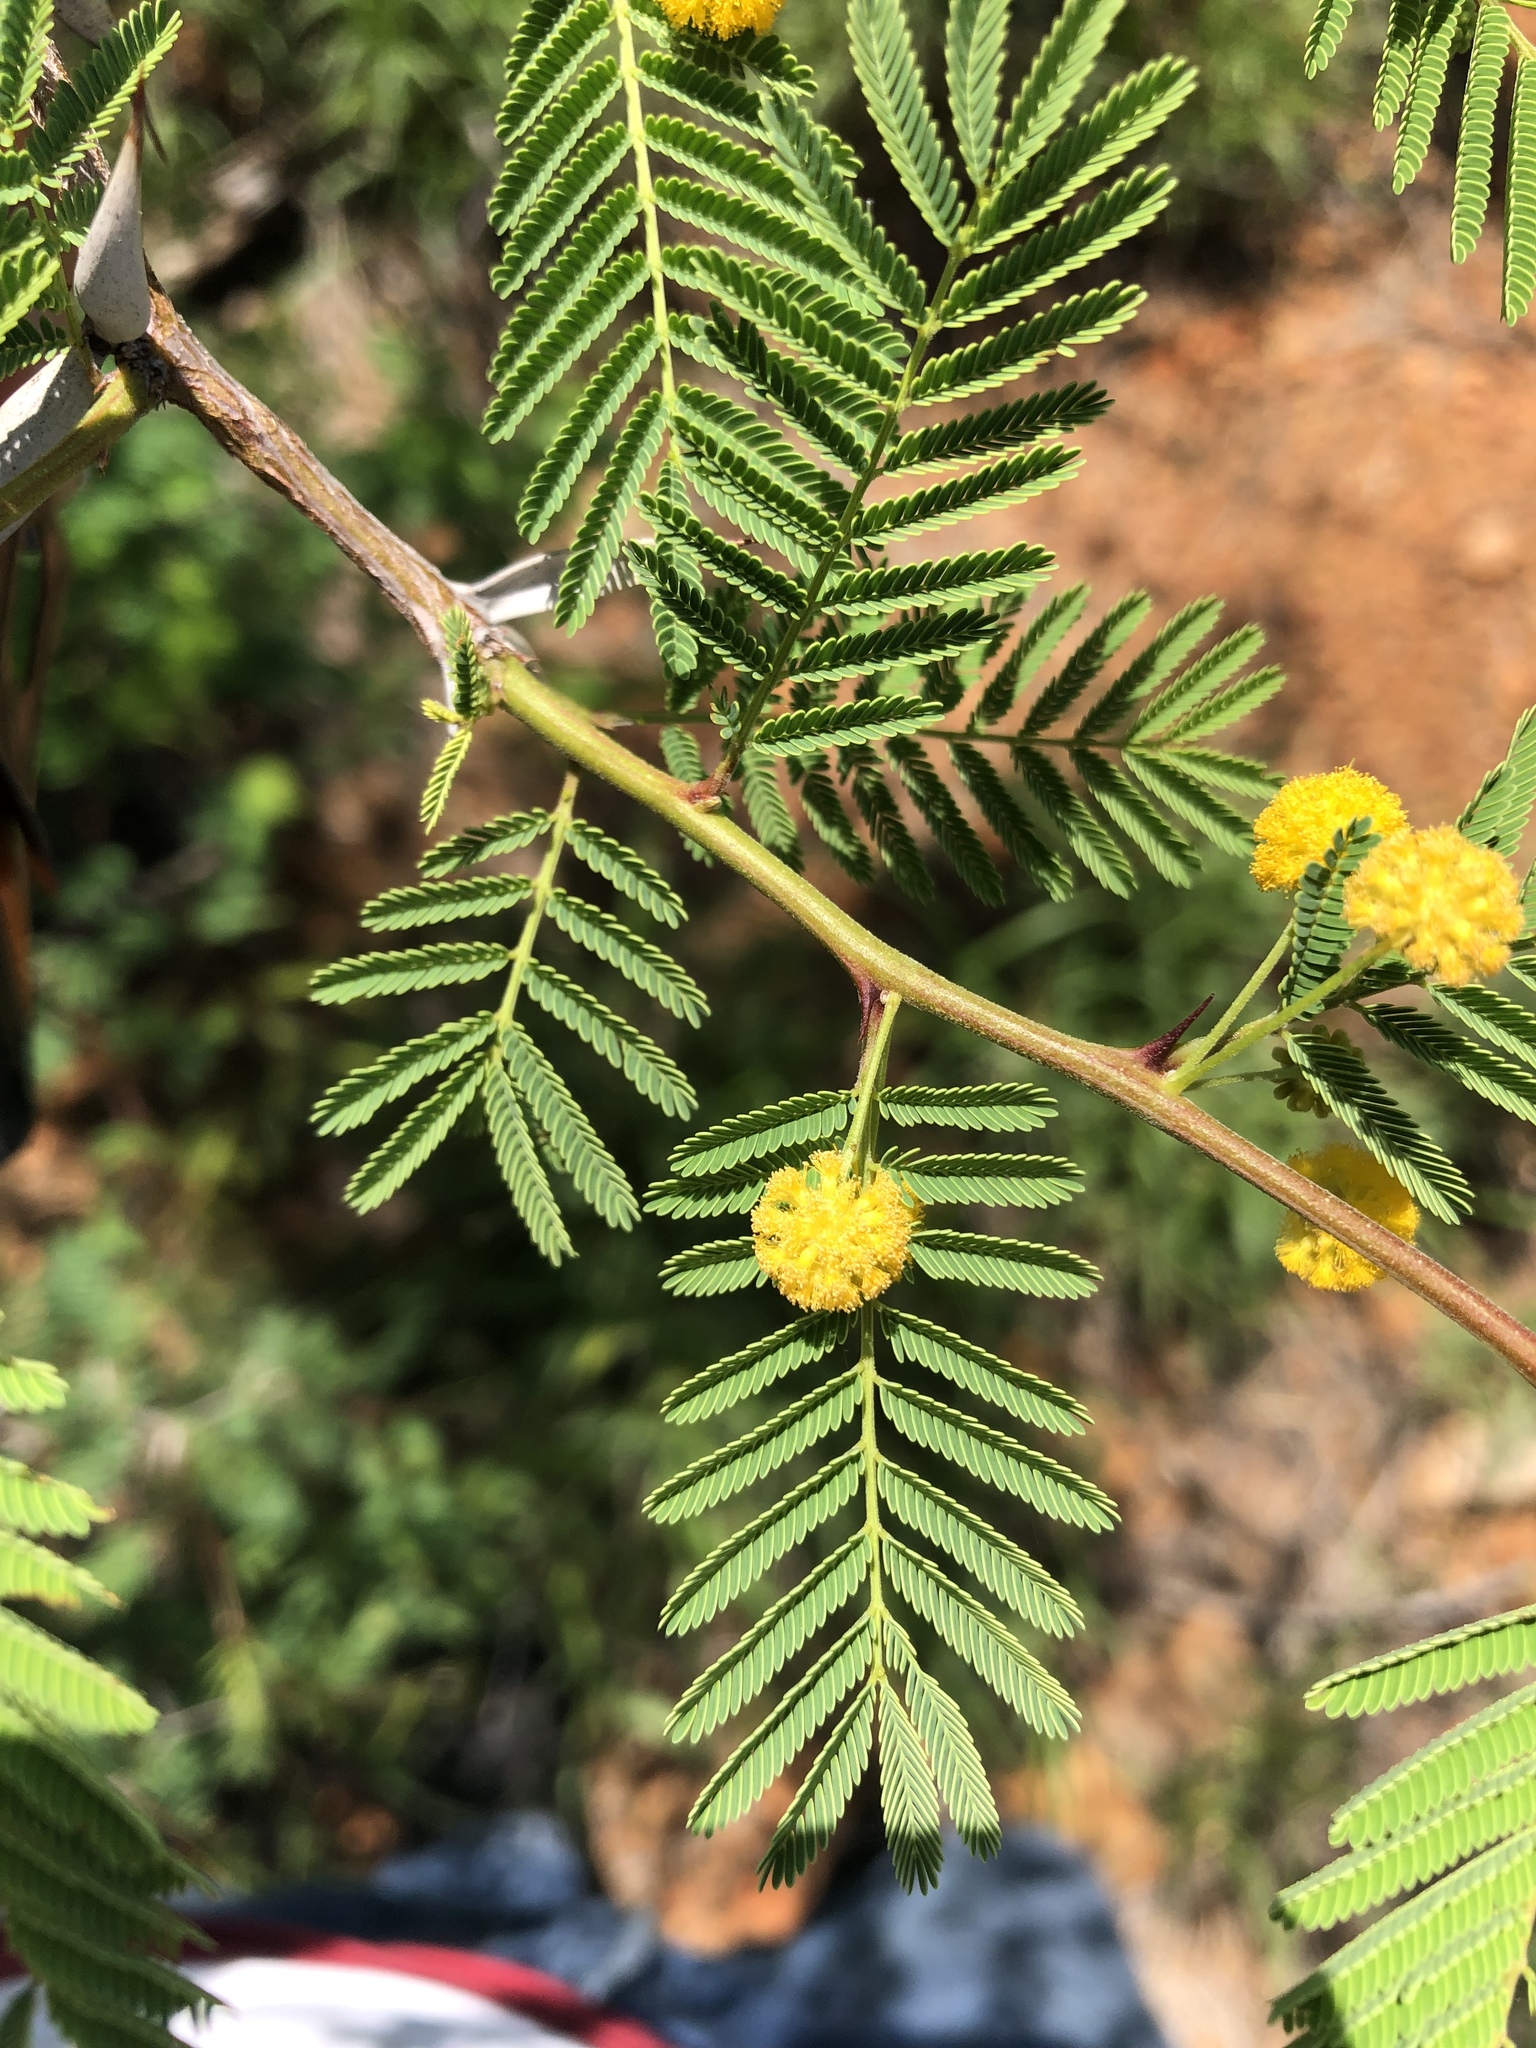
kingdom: Plantae
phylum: Tracheophyta
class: Magnoliopsida
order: Fabales
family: Fabaceae
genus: Vachellia
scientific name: Vachellia campechiana
